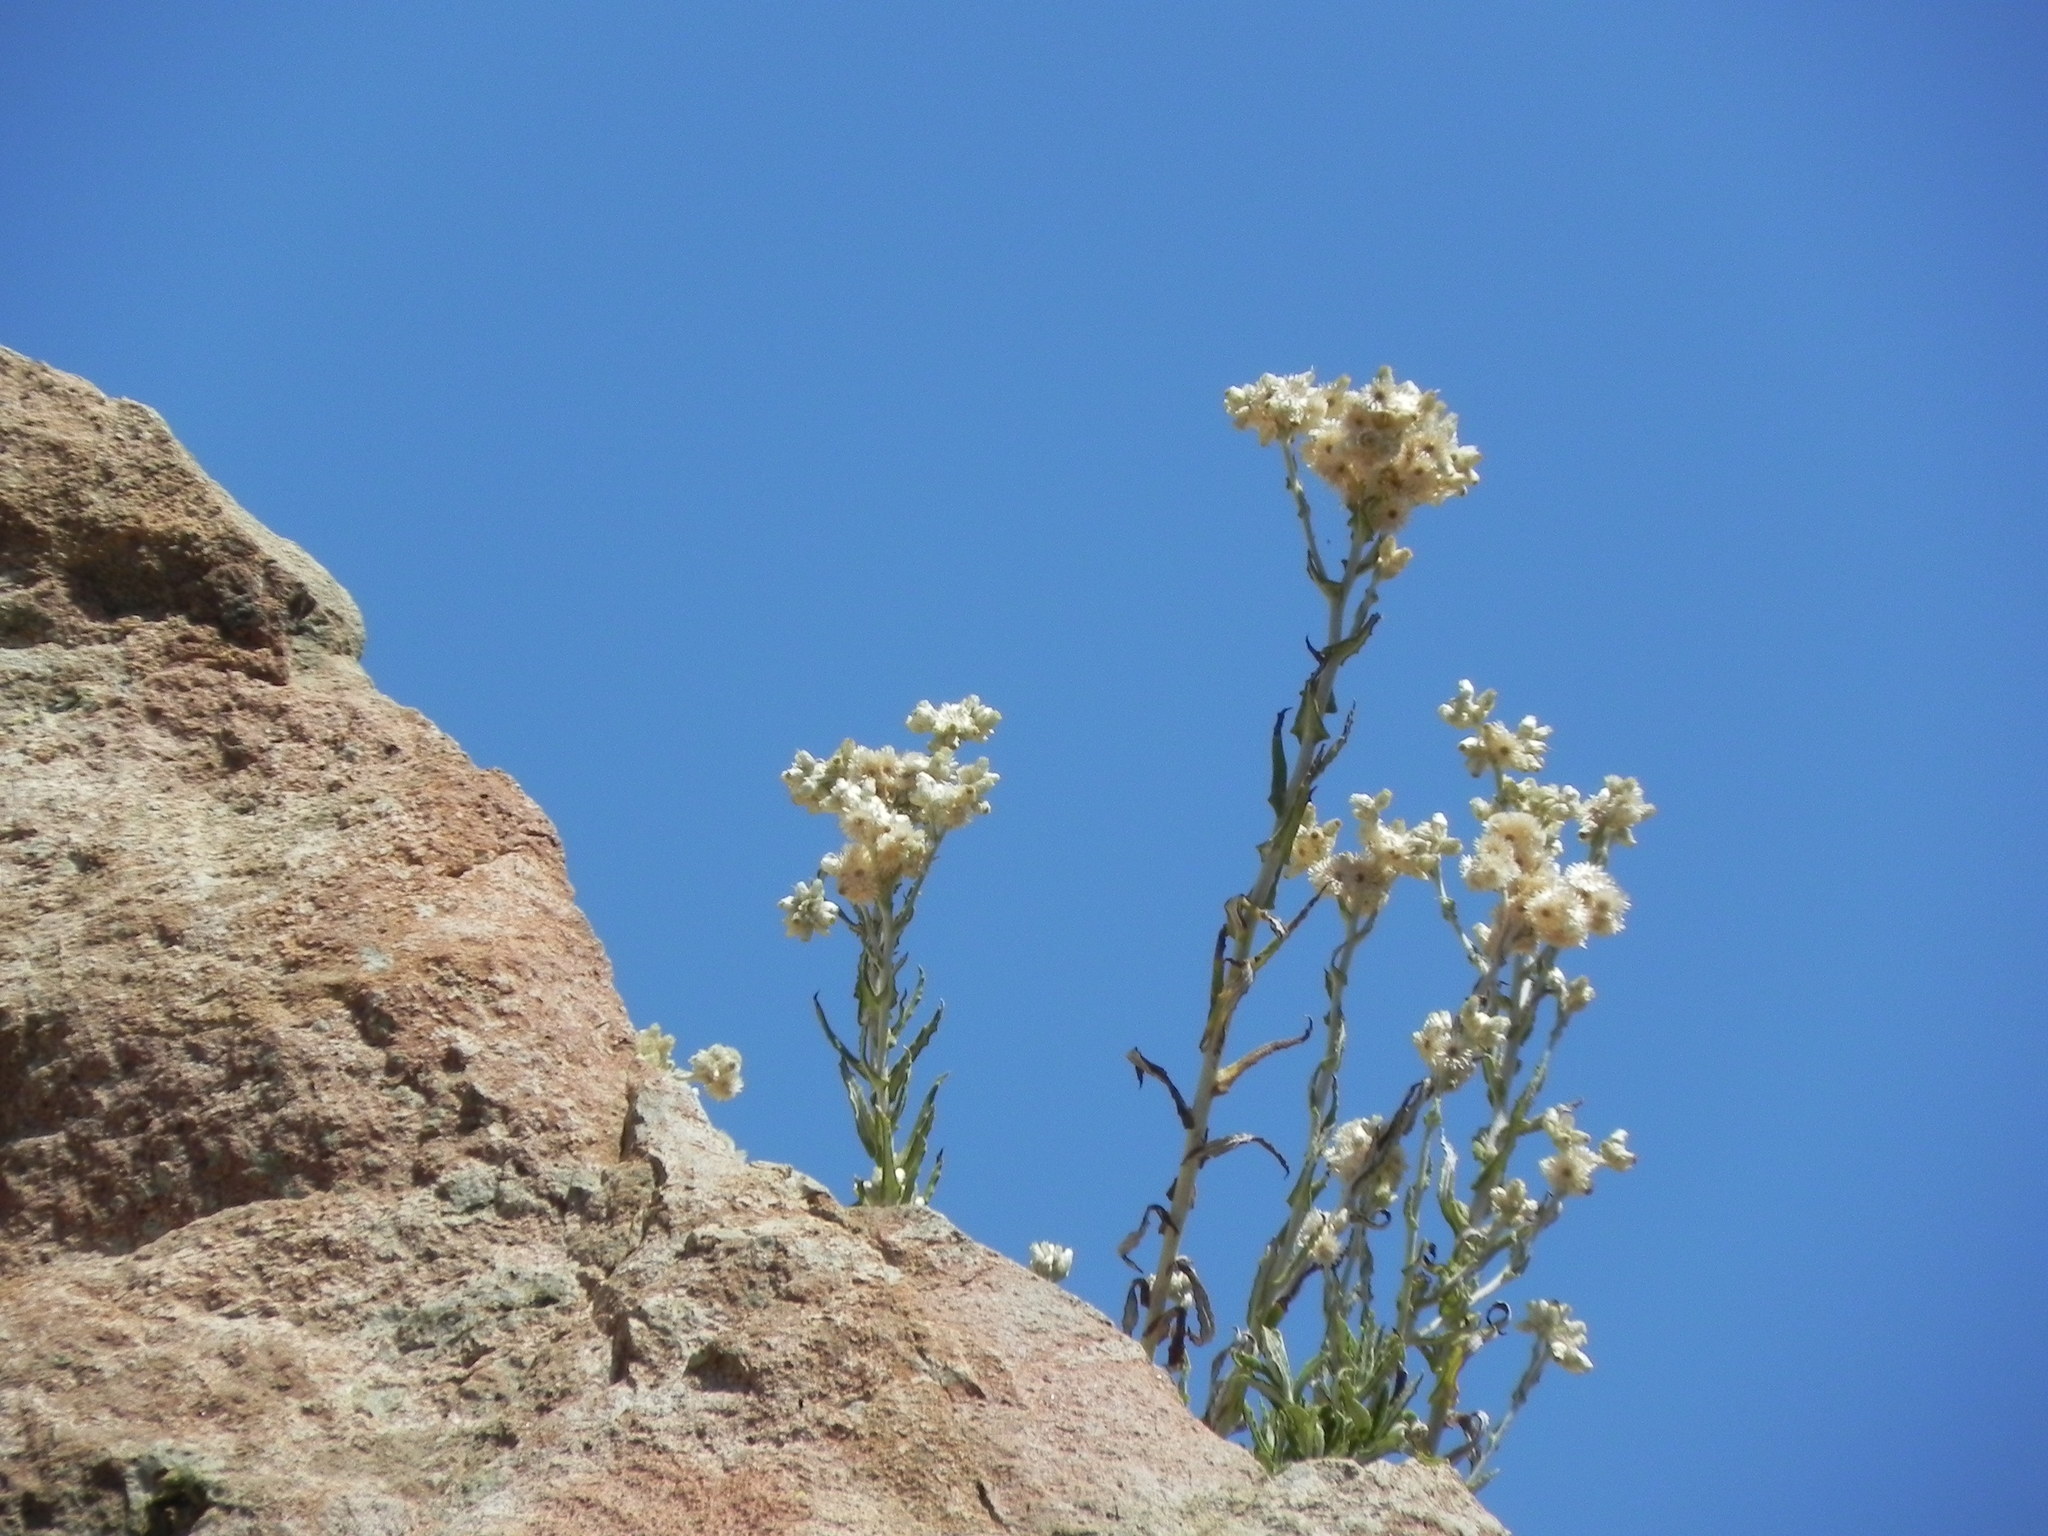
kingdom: Plantae
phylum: Tracheophyta
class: Magnoliopsida
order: Asterales
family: Asteraceae
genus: Pseudognaphalium
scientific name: Pseudognaphalium biolettii
